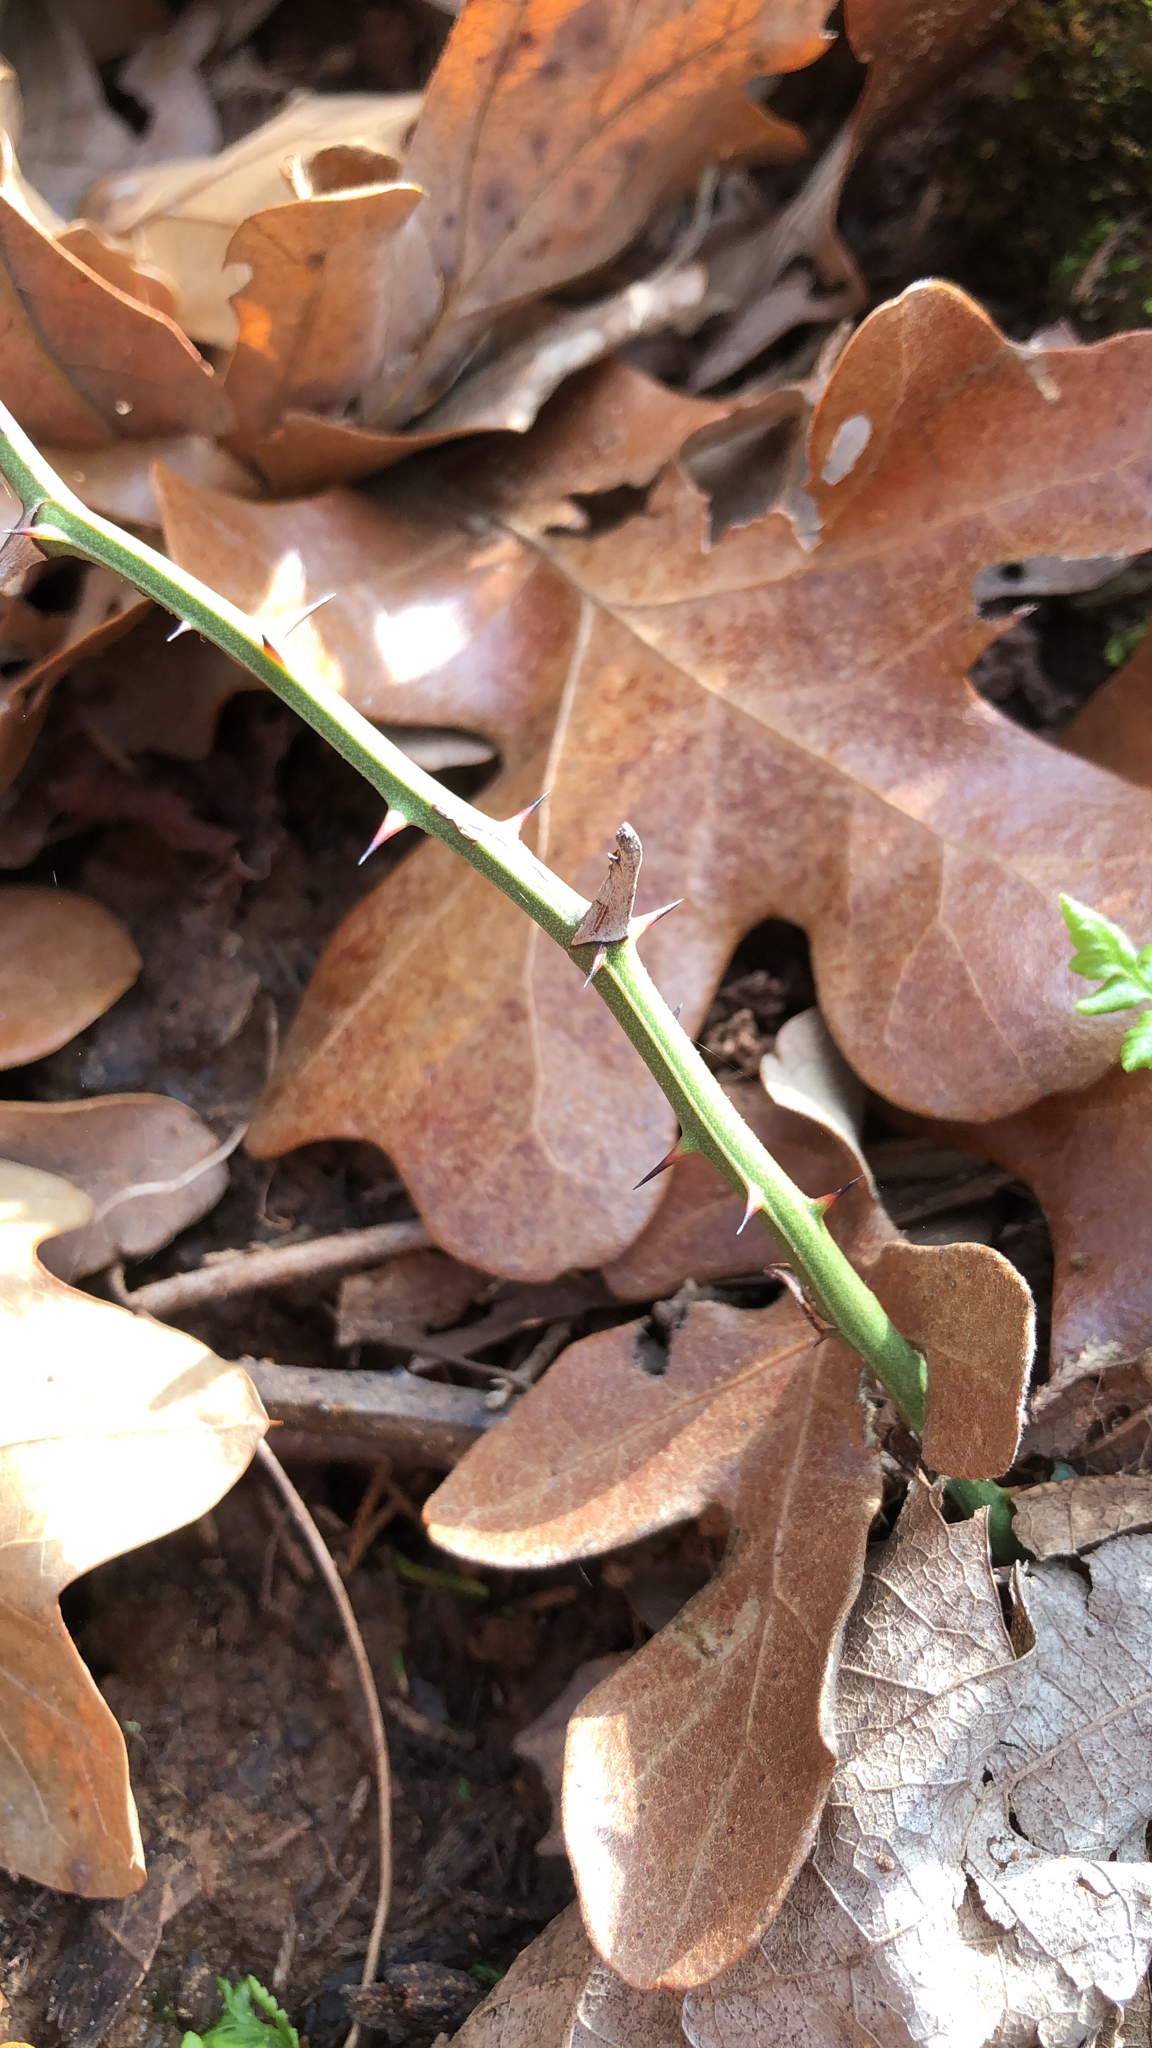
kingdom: Plantae
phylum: Tracheophyta
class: Liliopsida
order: Liliales
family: Smilacaceae
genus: Smilax
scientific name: Smilax bona-nox
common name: Catbrier
